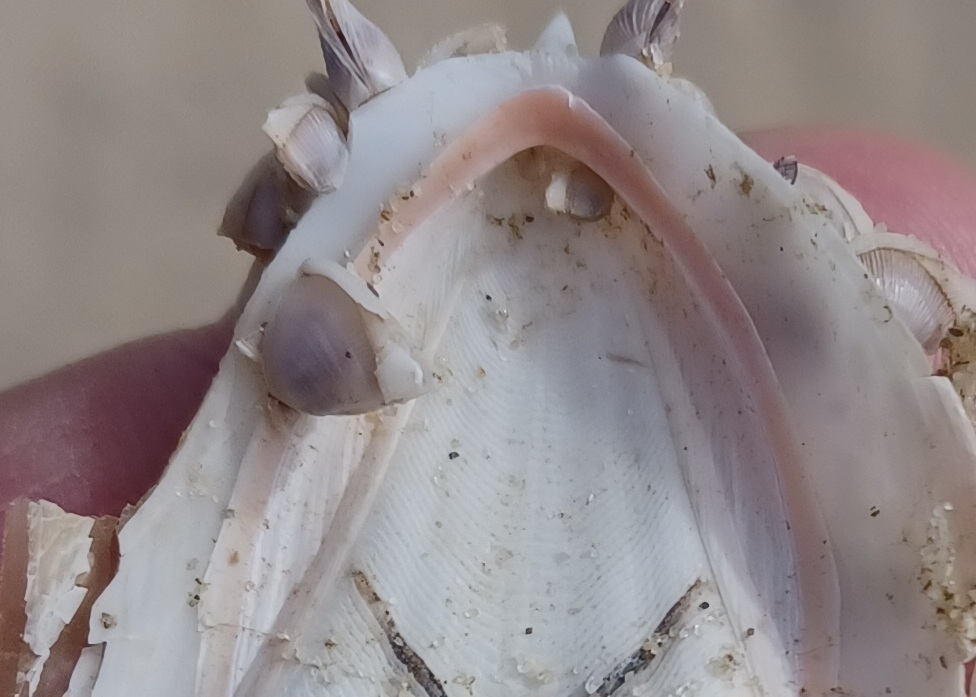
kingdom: Animalia
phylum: Mollusca
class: Cephalopoda
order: Sepiida
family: Sepiidae
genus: Ascarosepion
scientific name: Ascarosepion rozella
